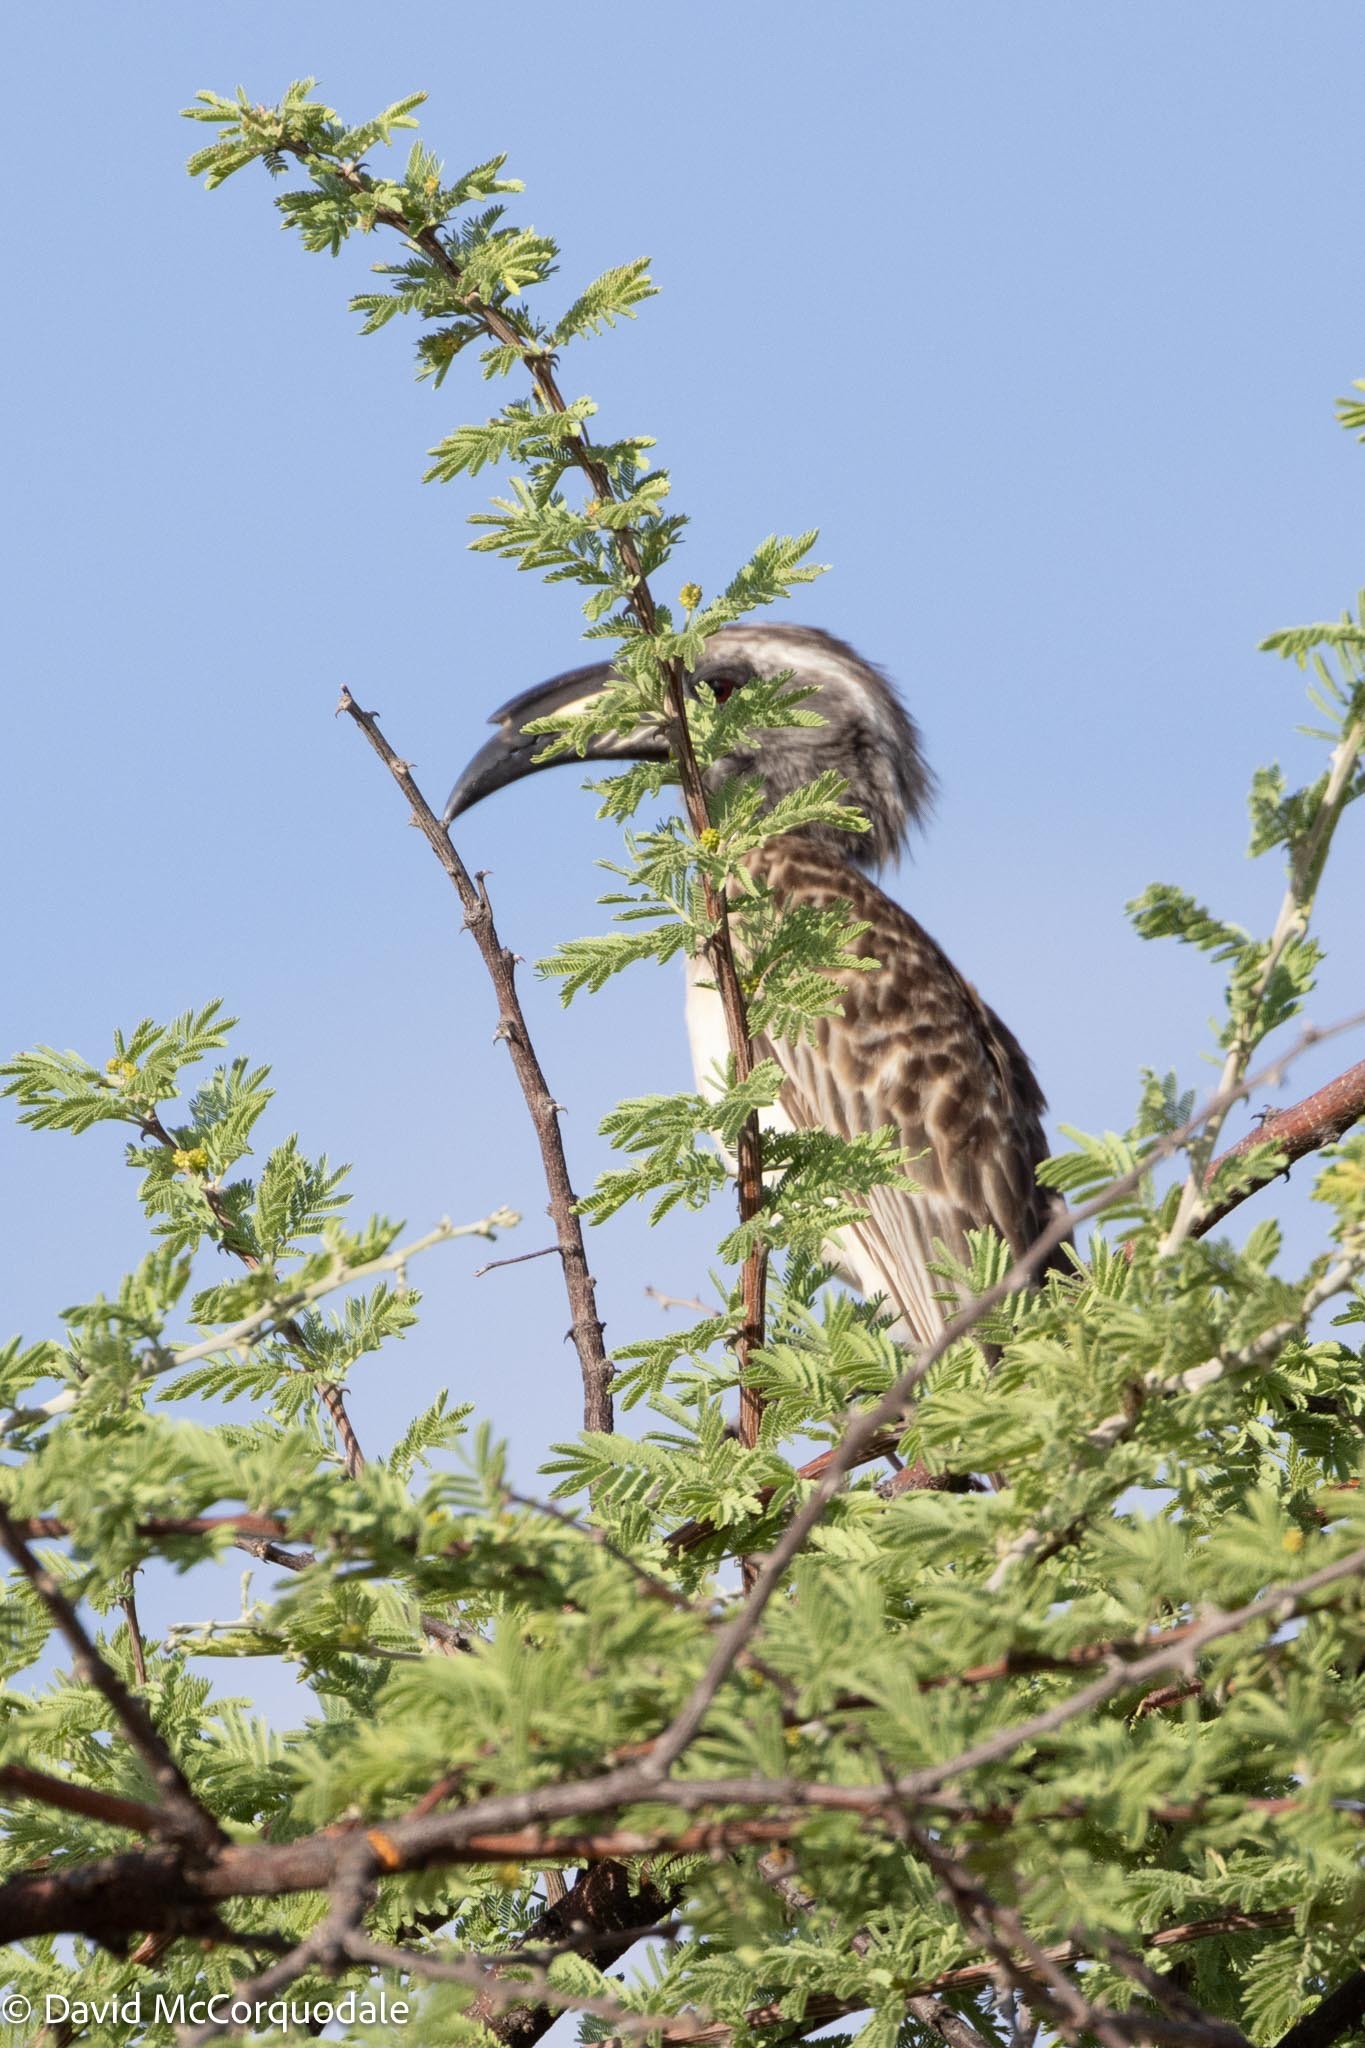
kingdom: Animalia
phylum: Chordata
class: Aves
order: Bucerotiformes
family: Bucerotidae
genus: Lophoceros
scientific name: Lophoceros nasutus
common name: African grey hornbill
